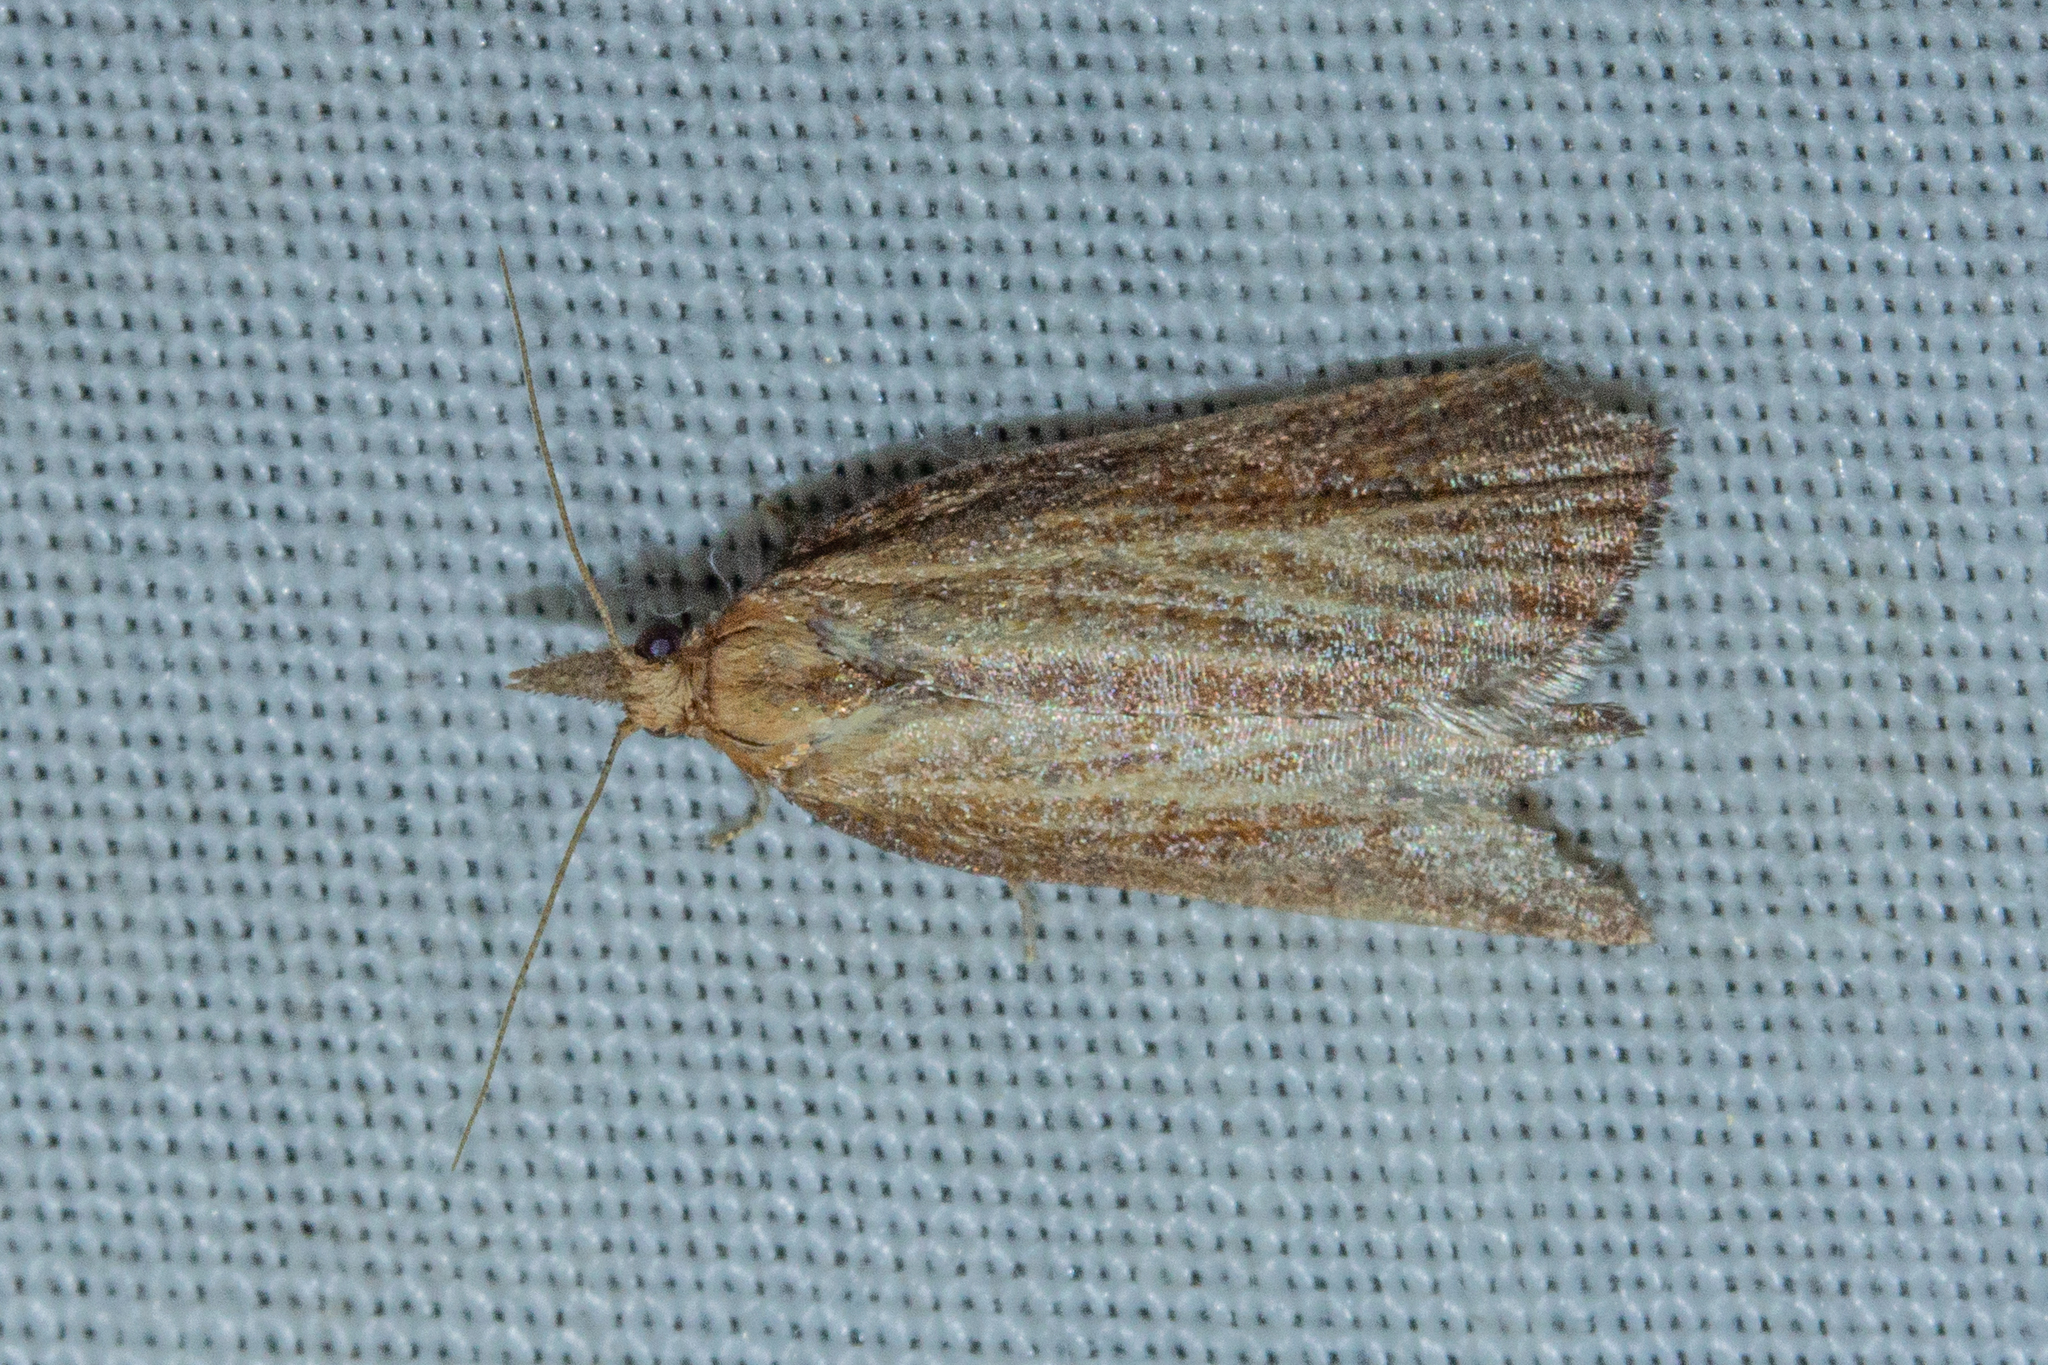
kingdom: Animalia
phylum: Arthropoda
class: Insecta
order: Lepidoptera
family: Tortricidae
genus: Catamacta
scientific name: Catamacta lotinana
